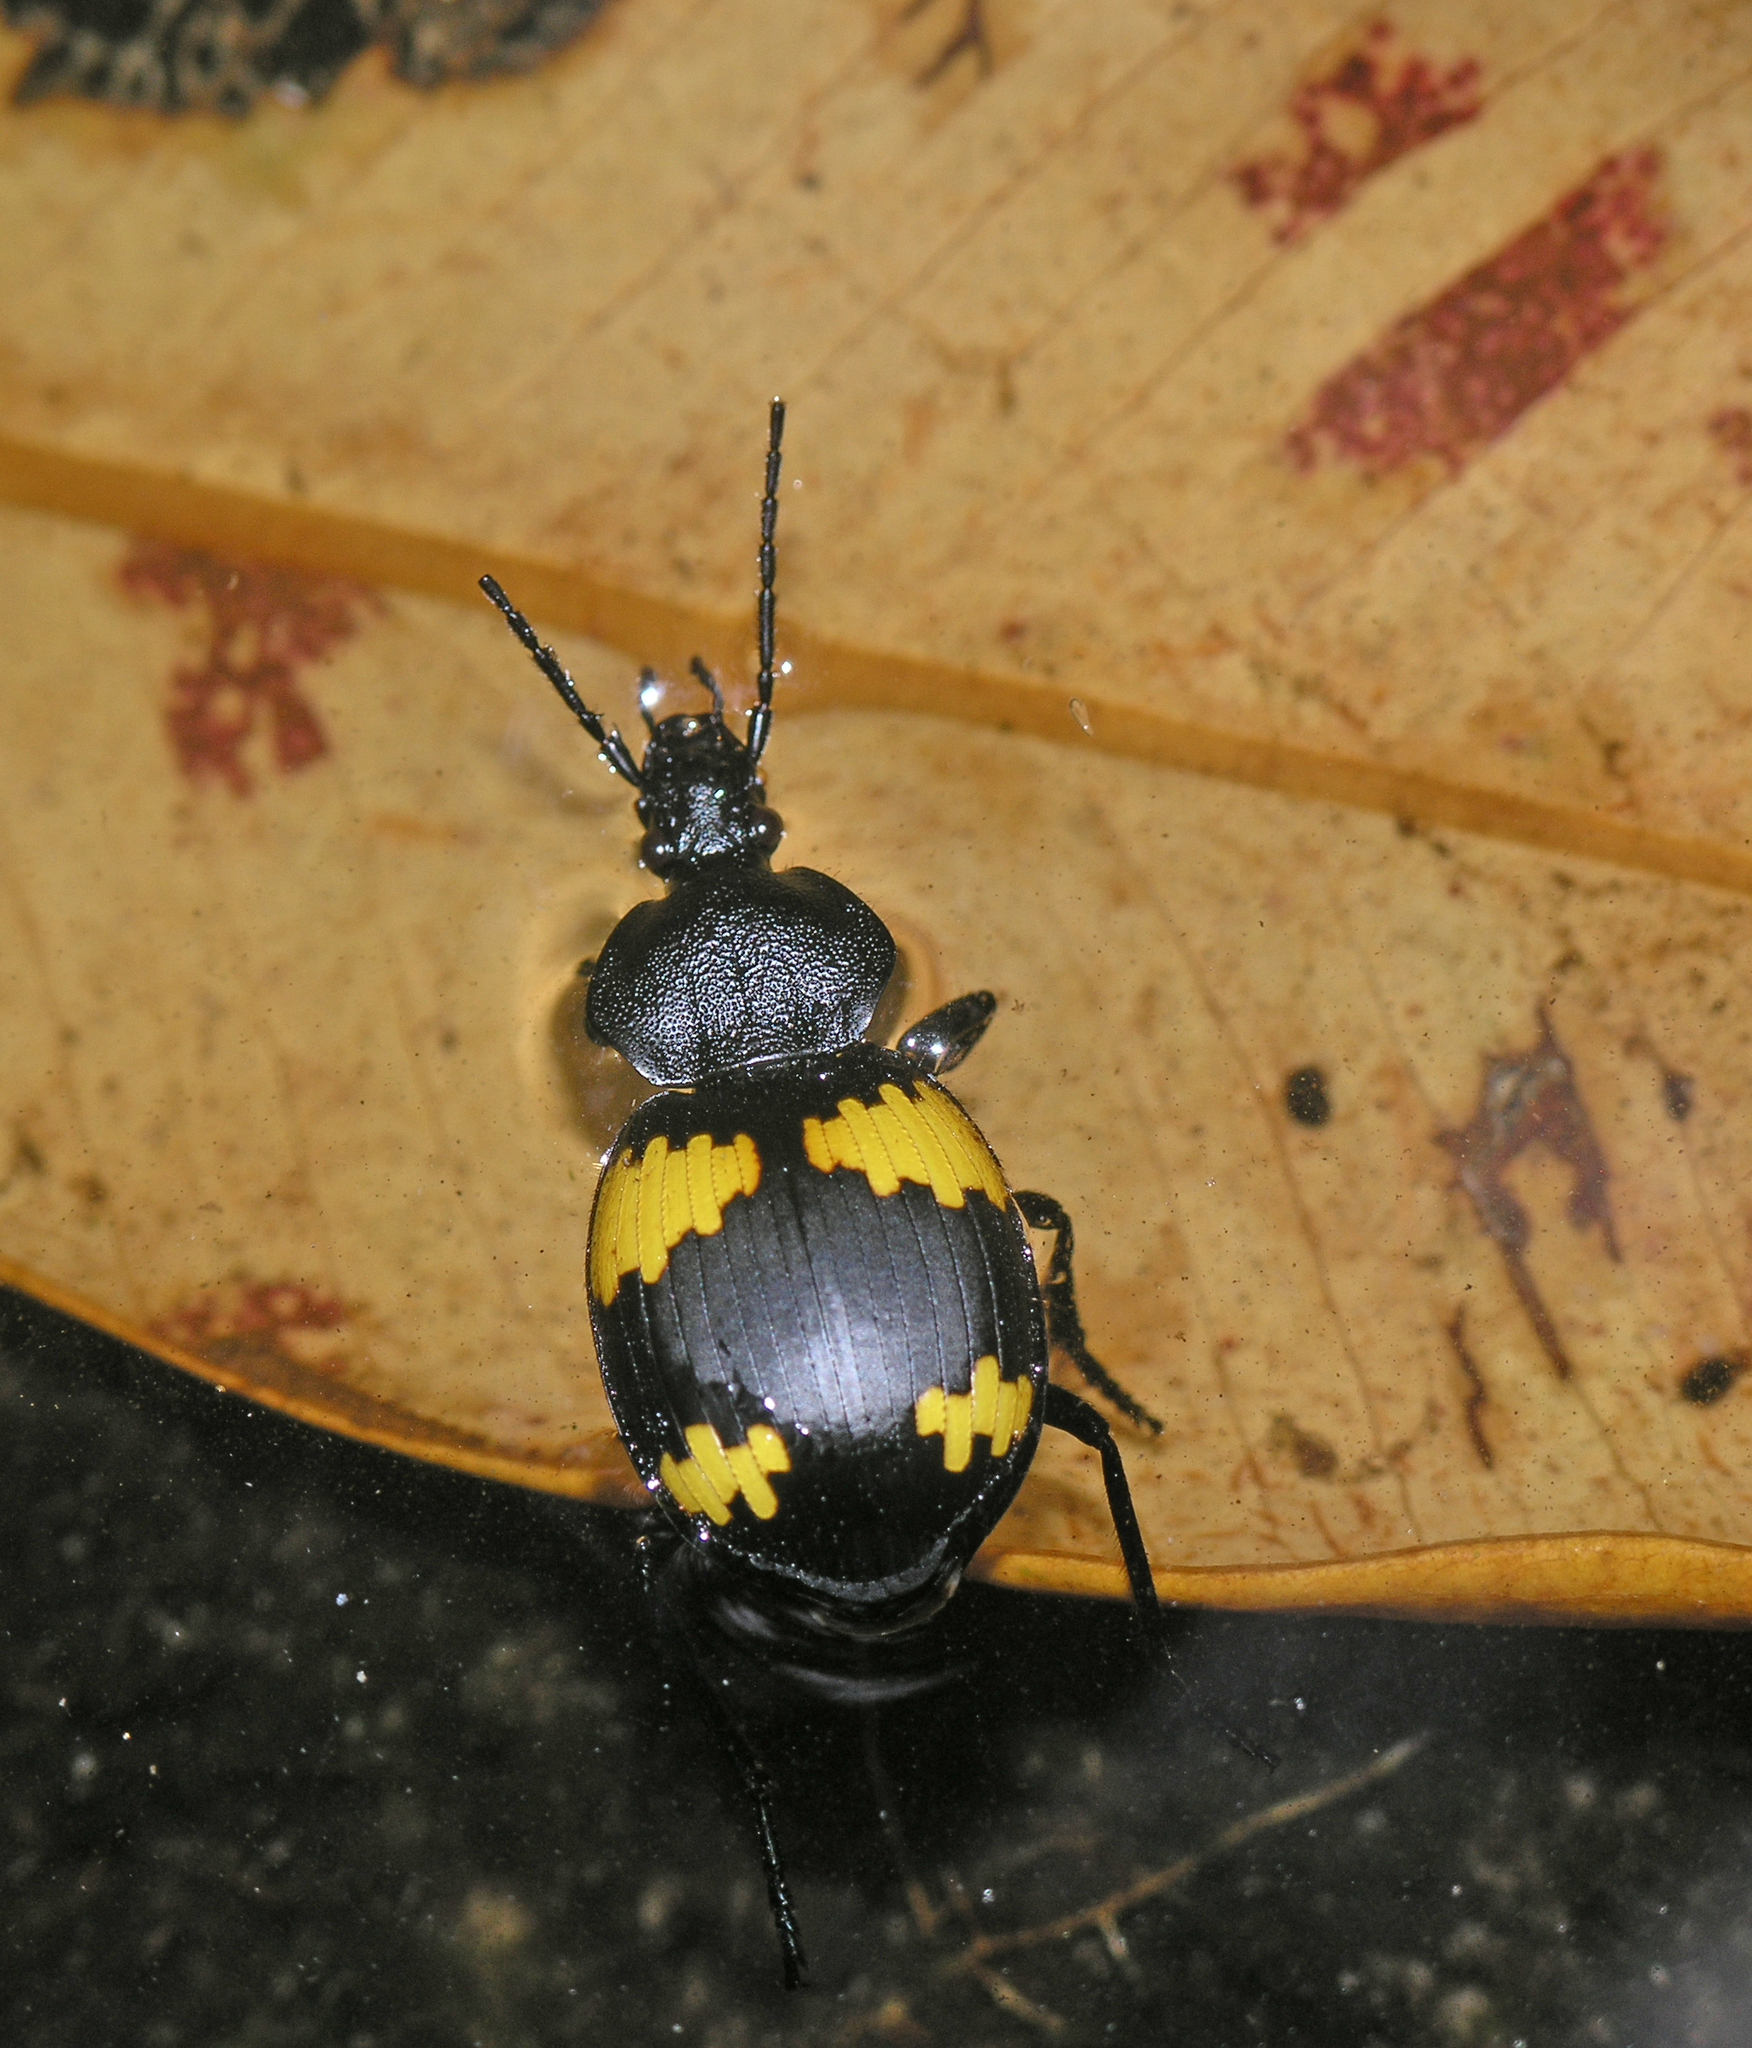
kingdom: Animalia
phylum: Arthropoda
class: Insecta
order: Coleoptera
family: Carabidae
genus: Craspedophorus
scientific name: Craspedophorus sublaevis
